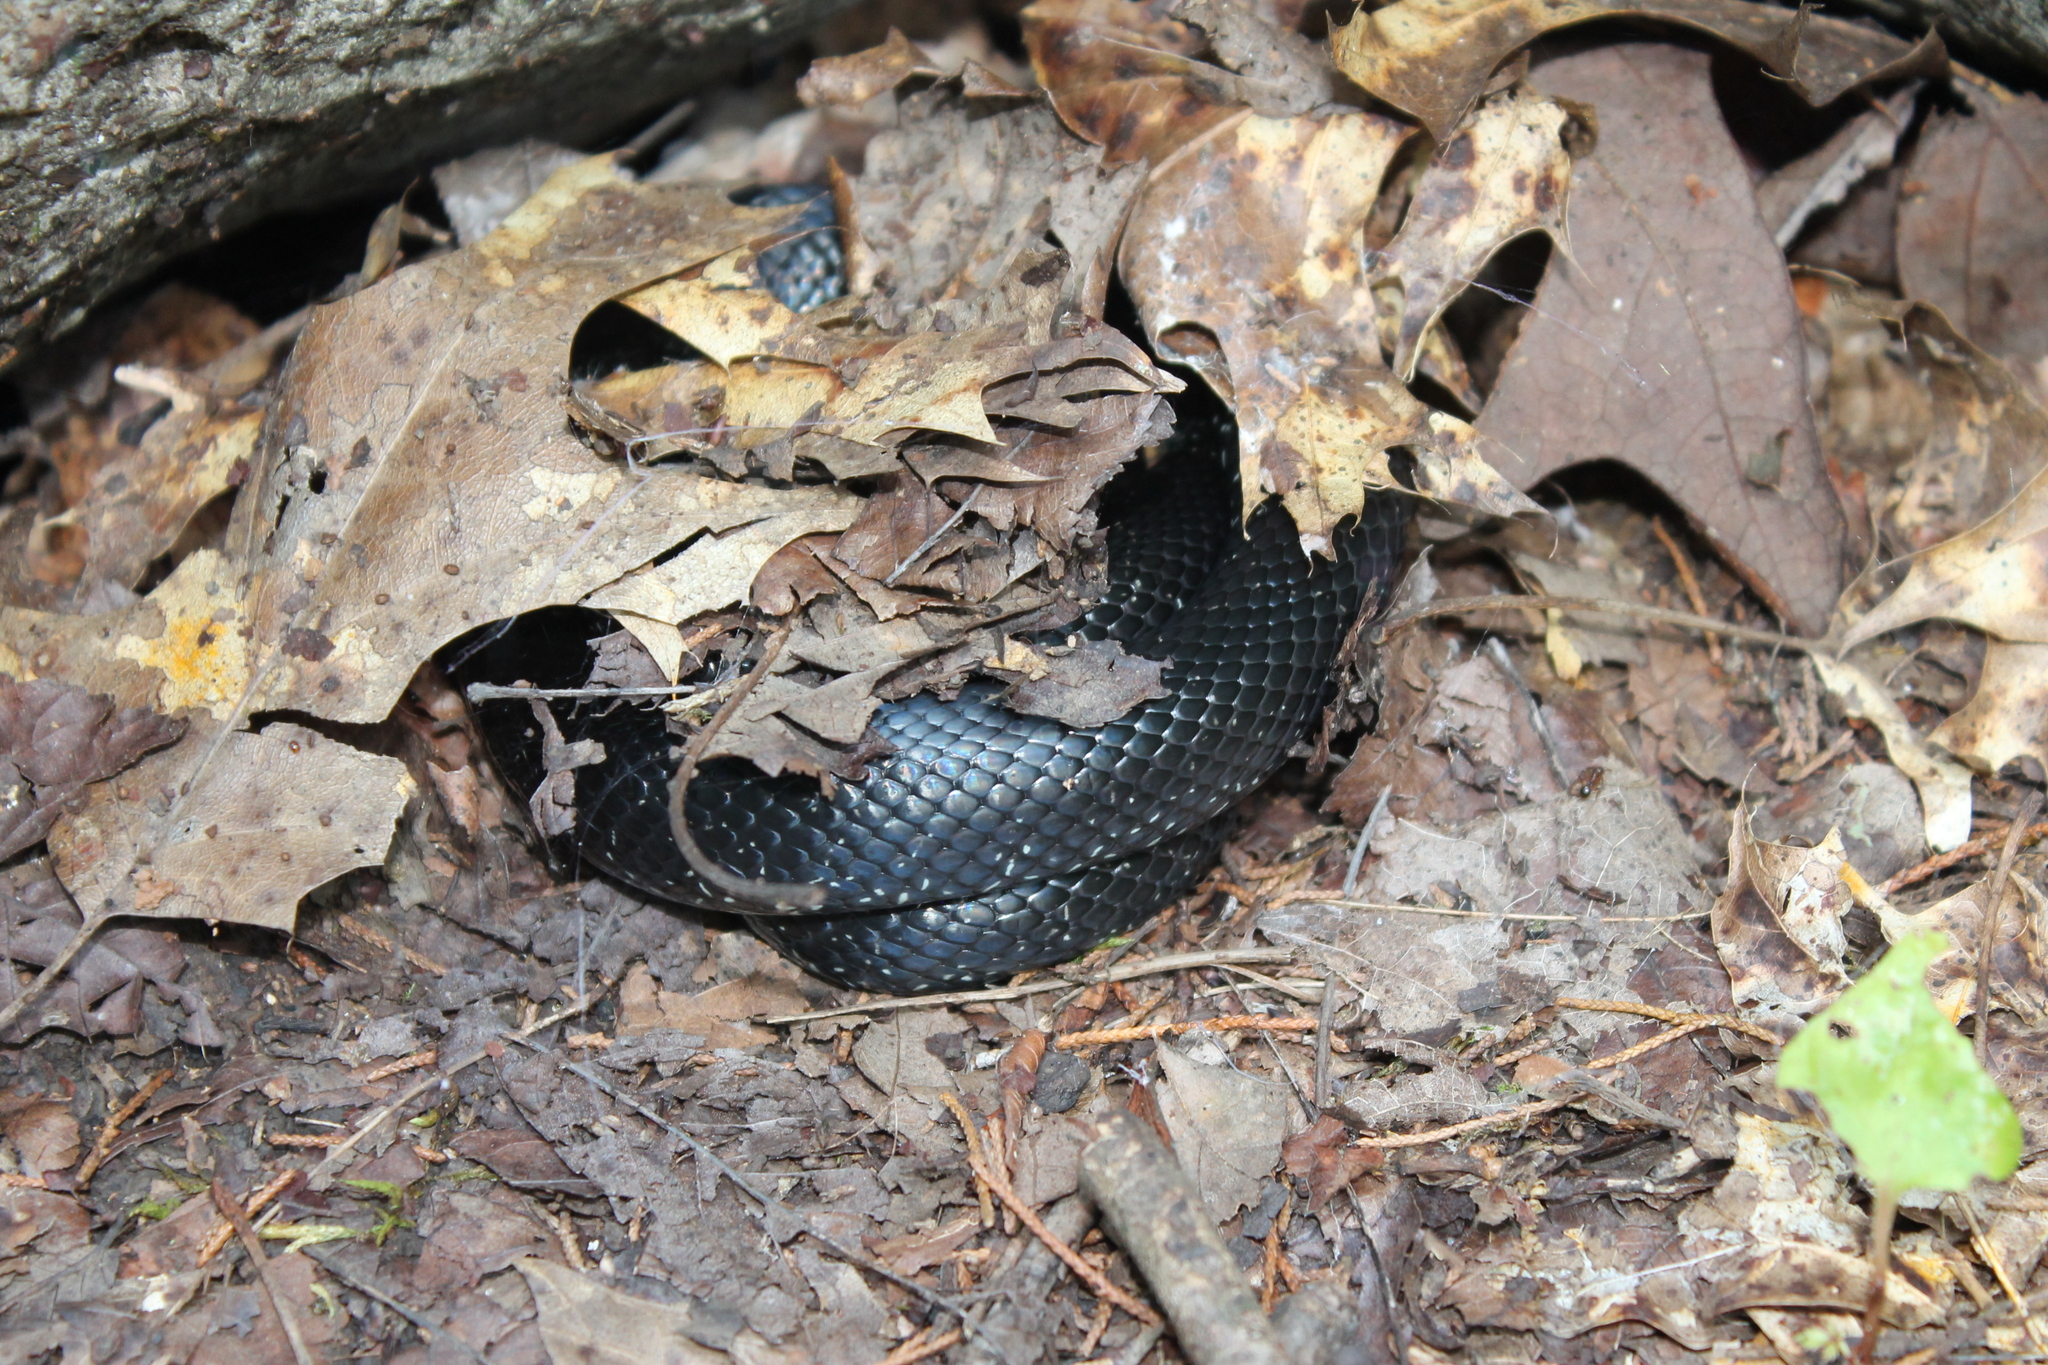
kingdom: Animalia
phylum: Chordata
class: Squamata
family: Colubridae
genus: Lampropeltis
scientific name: Lampropeltis nigra
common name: Black kingsnake
